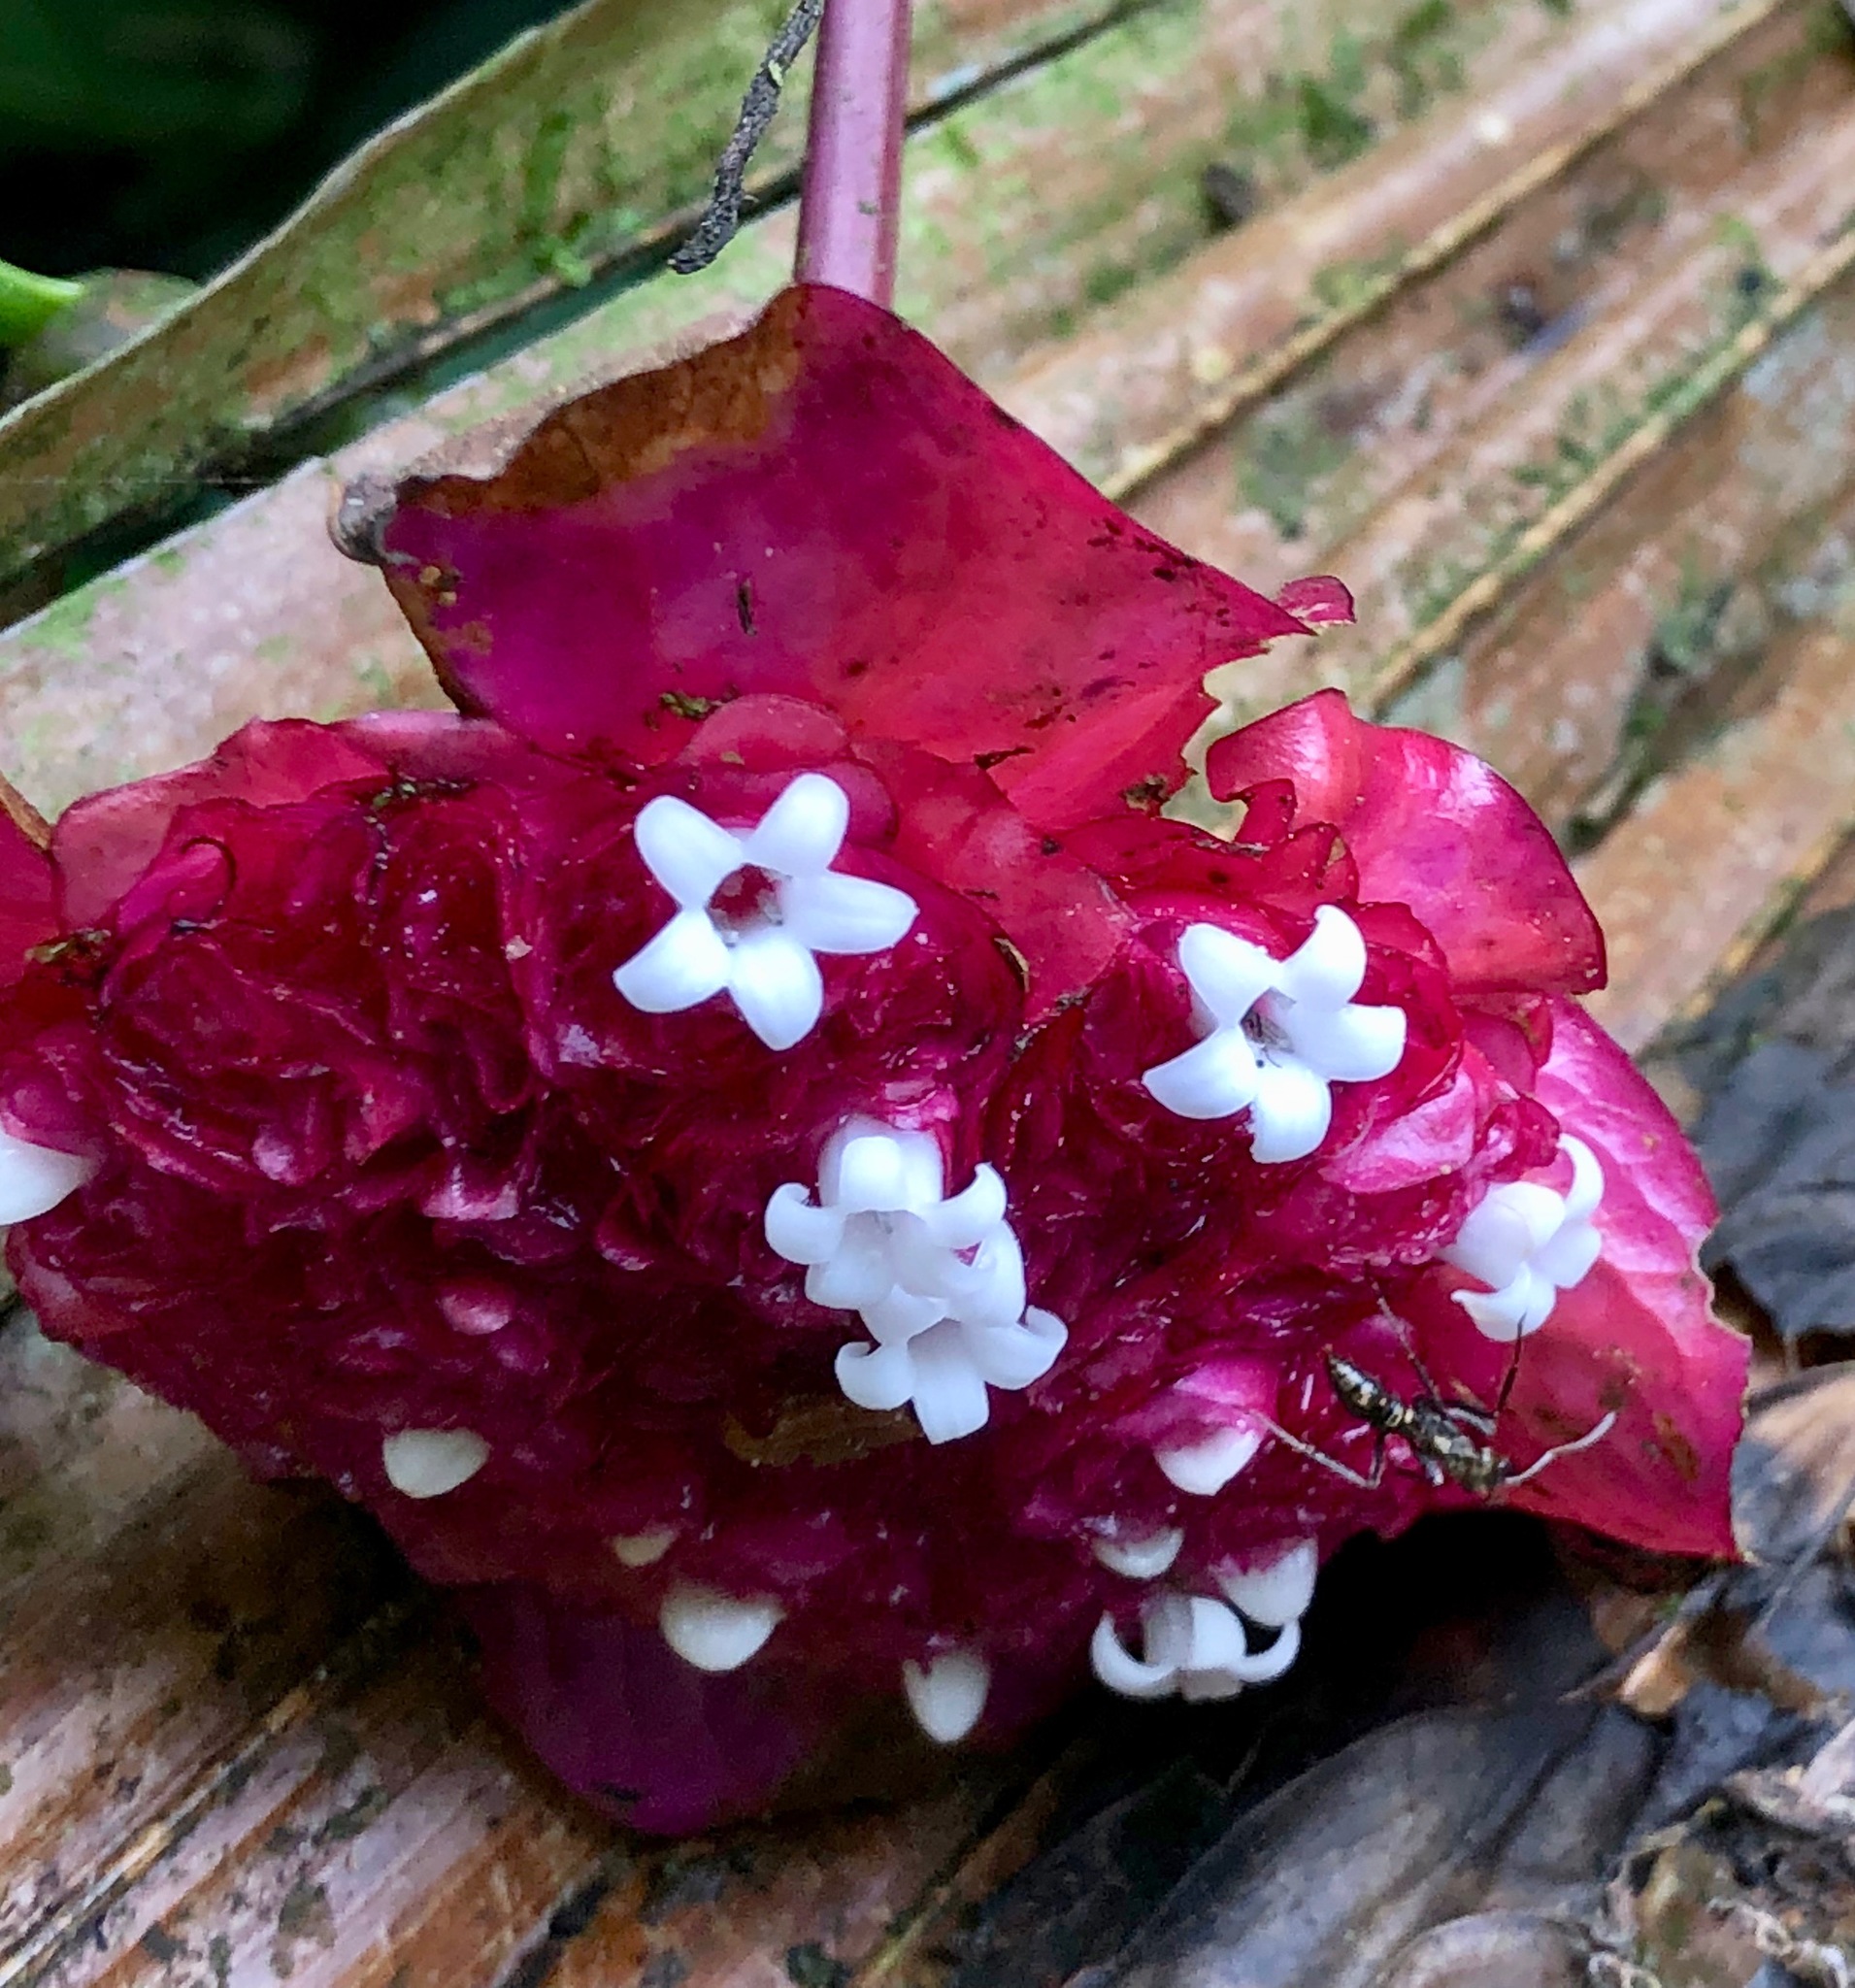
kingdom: Plantae
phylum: Tracheophyta
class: Magnoliopsida
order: Gentianales
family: Rubiaceae
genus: Palicourea
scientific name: Palicourea correae
